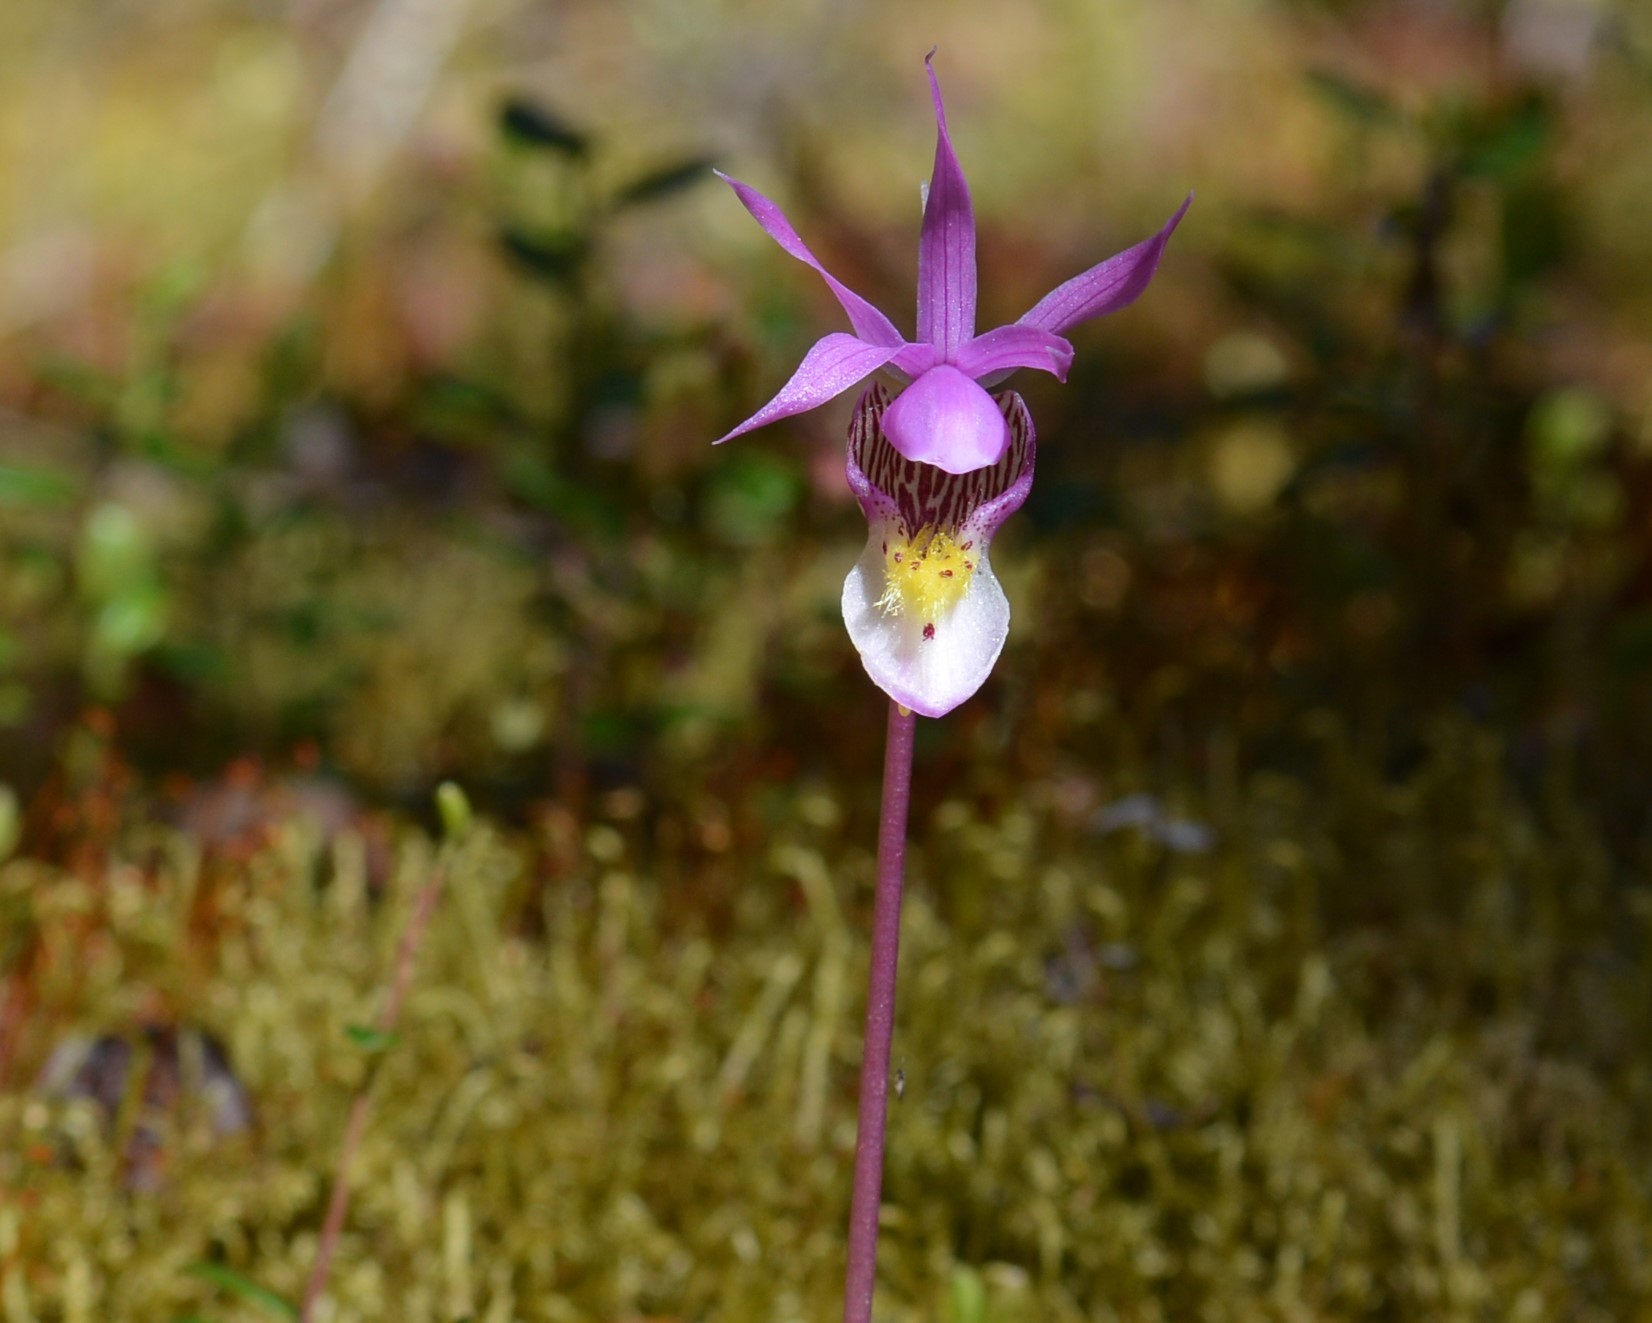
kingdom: Plantae
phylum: Tracheophyta
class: Liliopsida
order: Asparagales
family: Orchidaceae
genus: Calypso
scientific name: Calypso bulbosa
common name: Calypso
